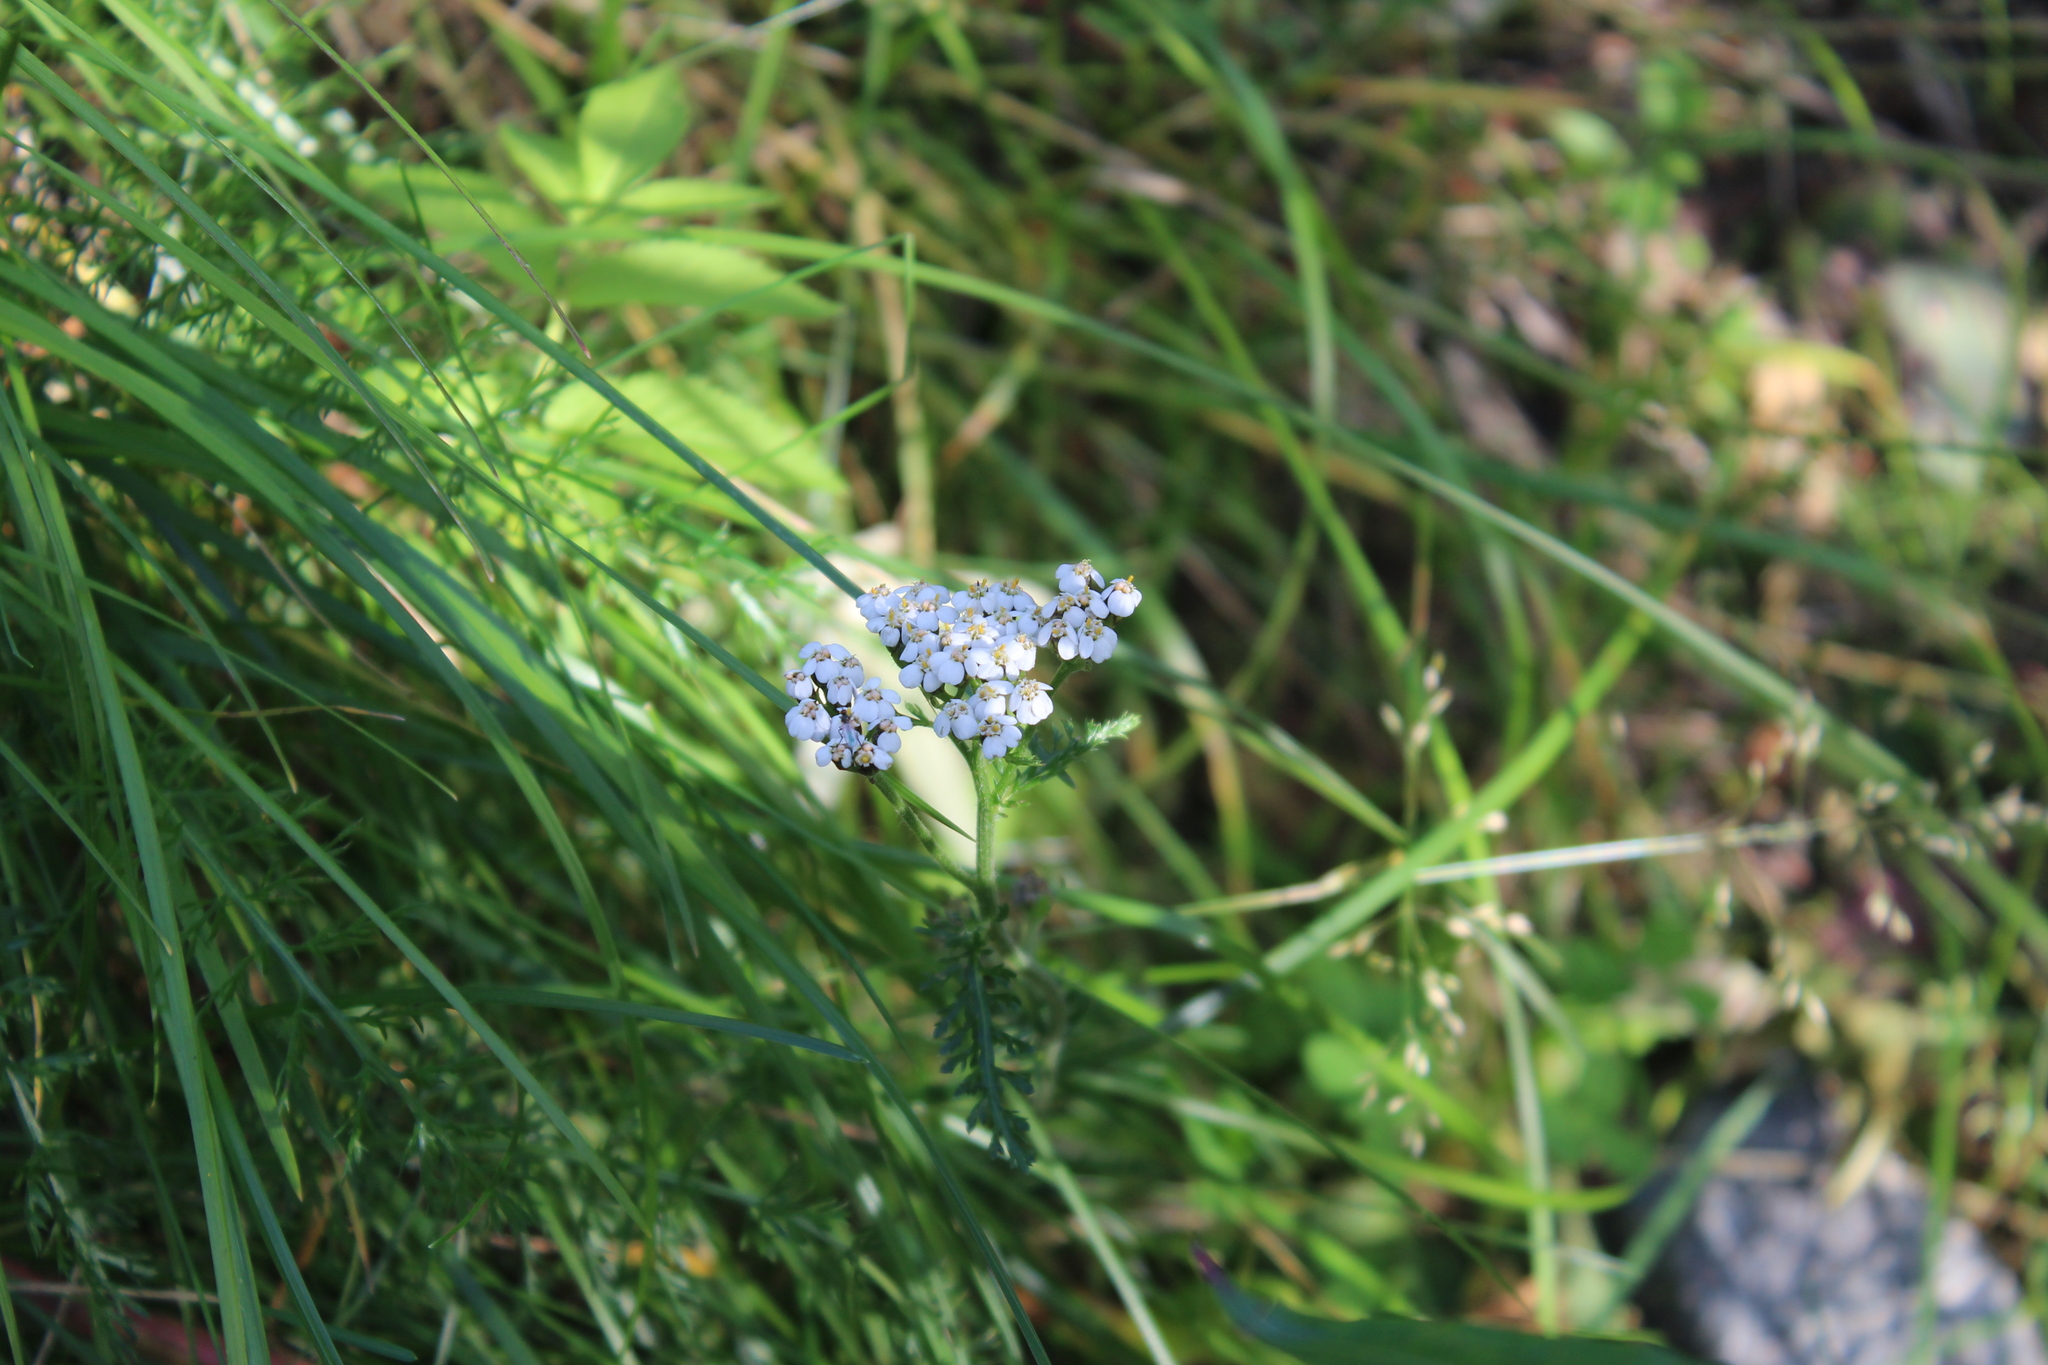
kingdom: Plantae
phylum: Tracheophyta
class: Magnoliopsida
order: Asterales
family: Asteraceae
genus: Achillea
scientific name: Achillea millefolium
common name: Yarrow
